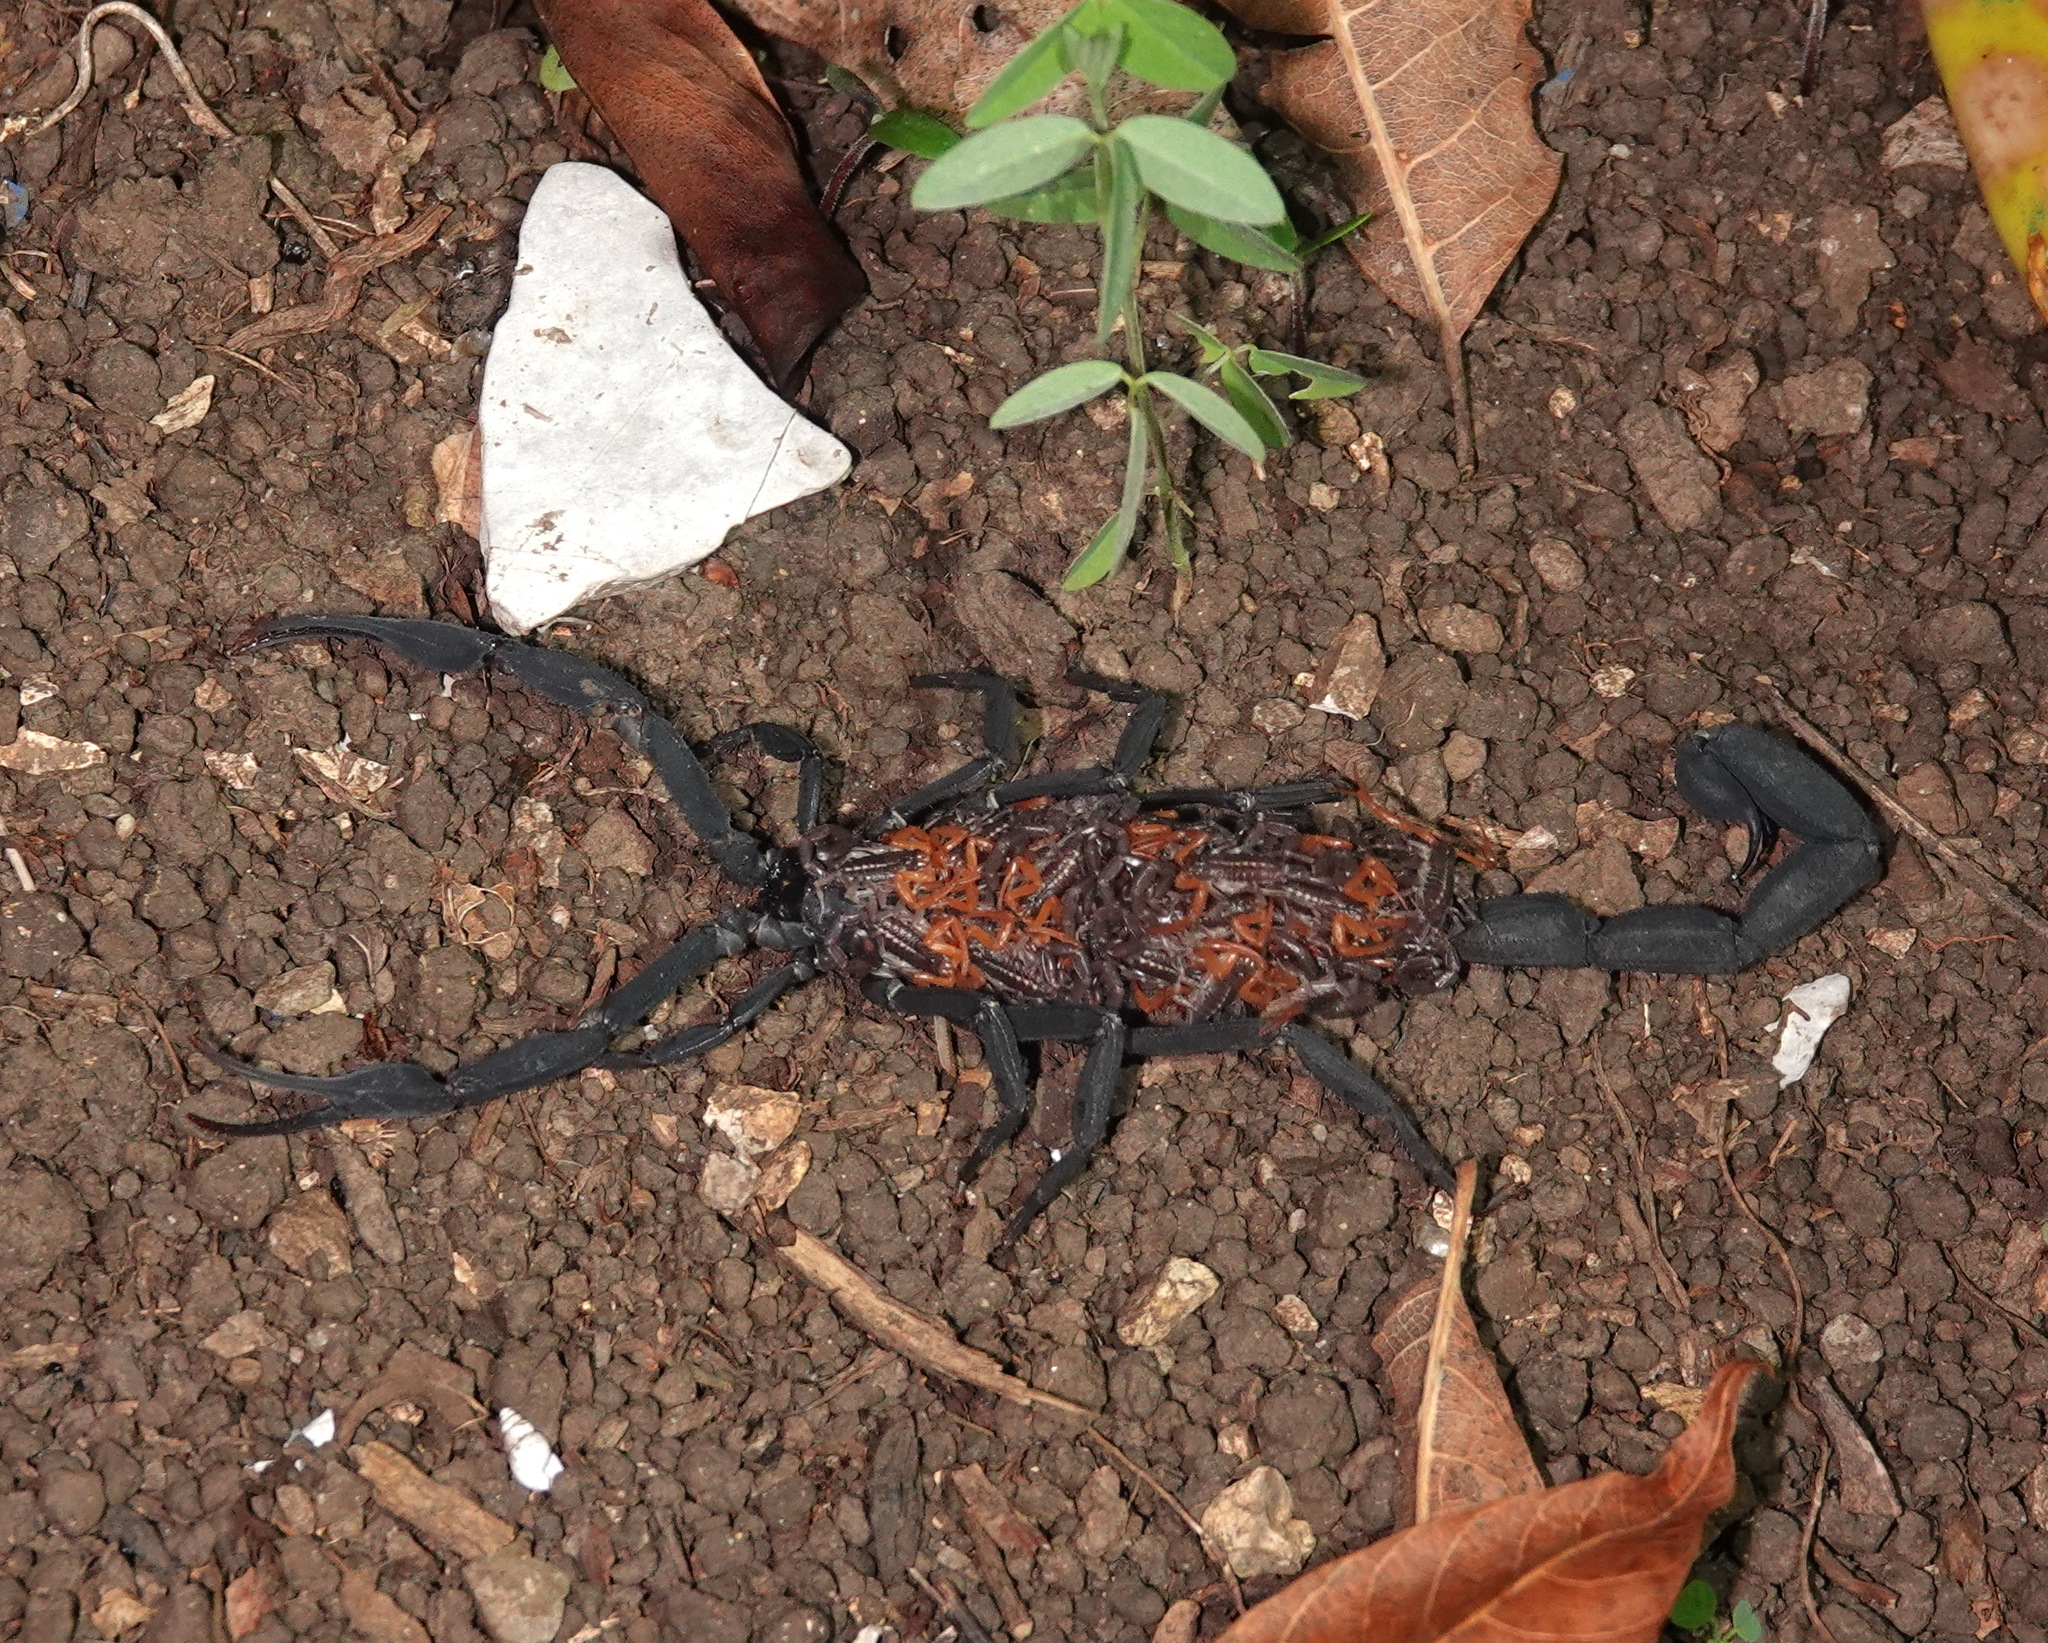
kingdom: Animalia
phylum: Arthropoda
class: Arachnida
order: Scorpiones
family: Buthidae
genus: Centruroides
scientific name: Centruroides gracilis
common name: Scorpions
